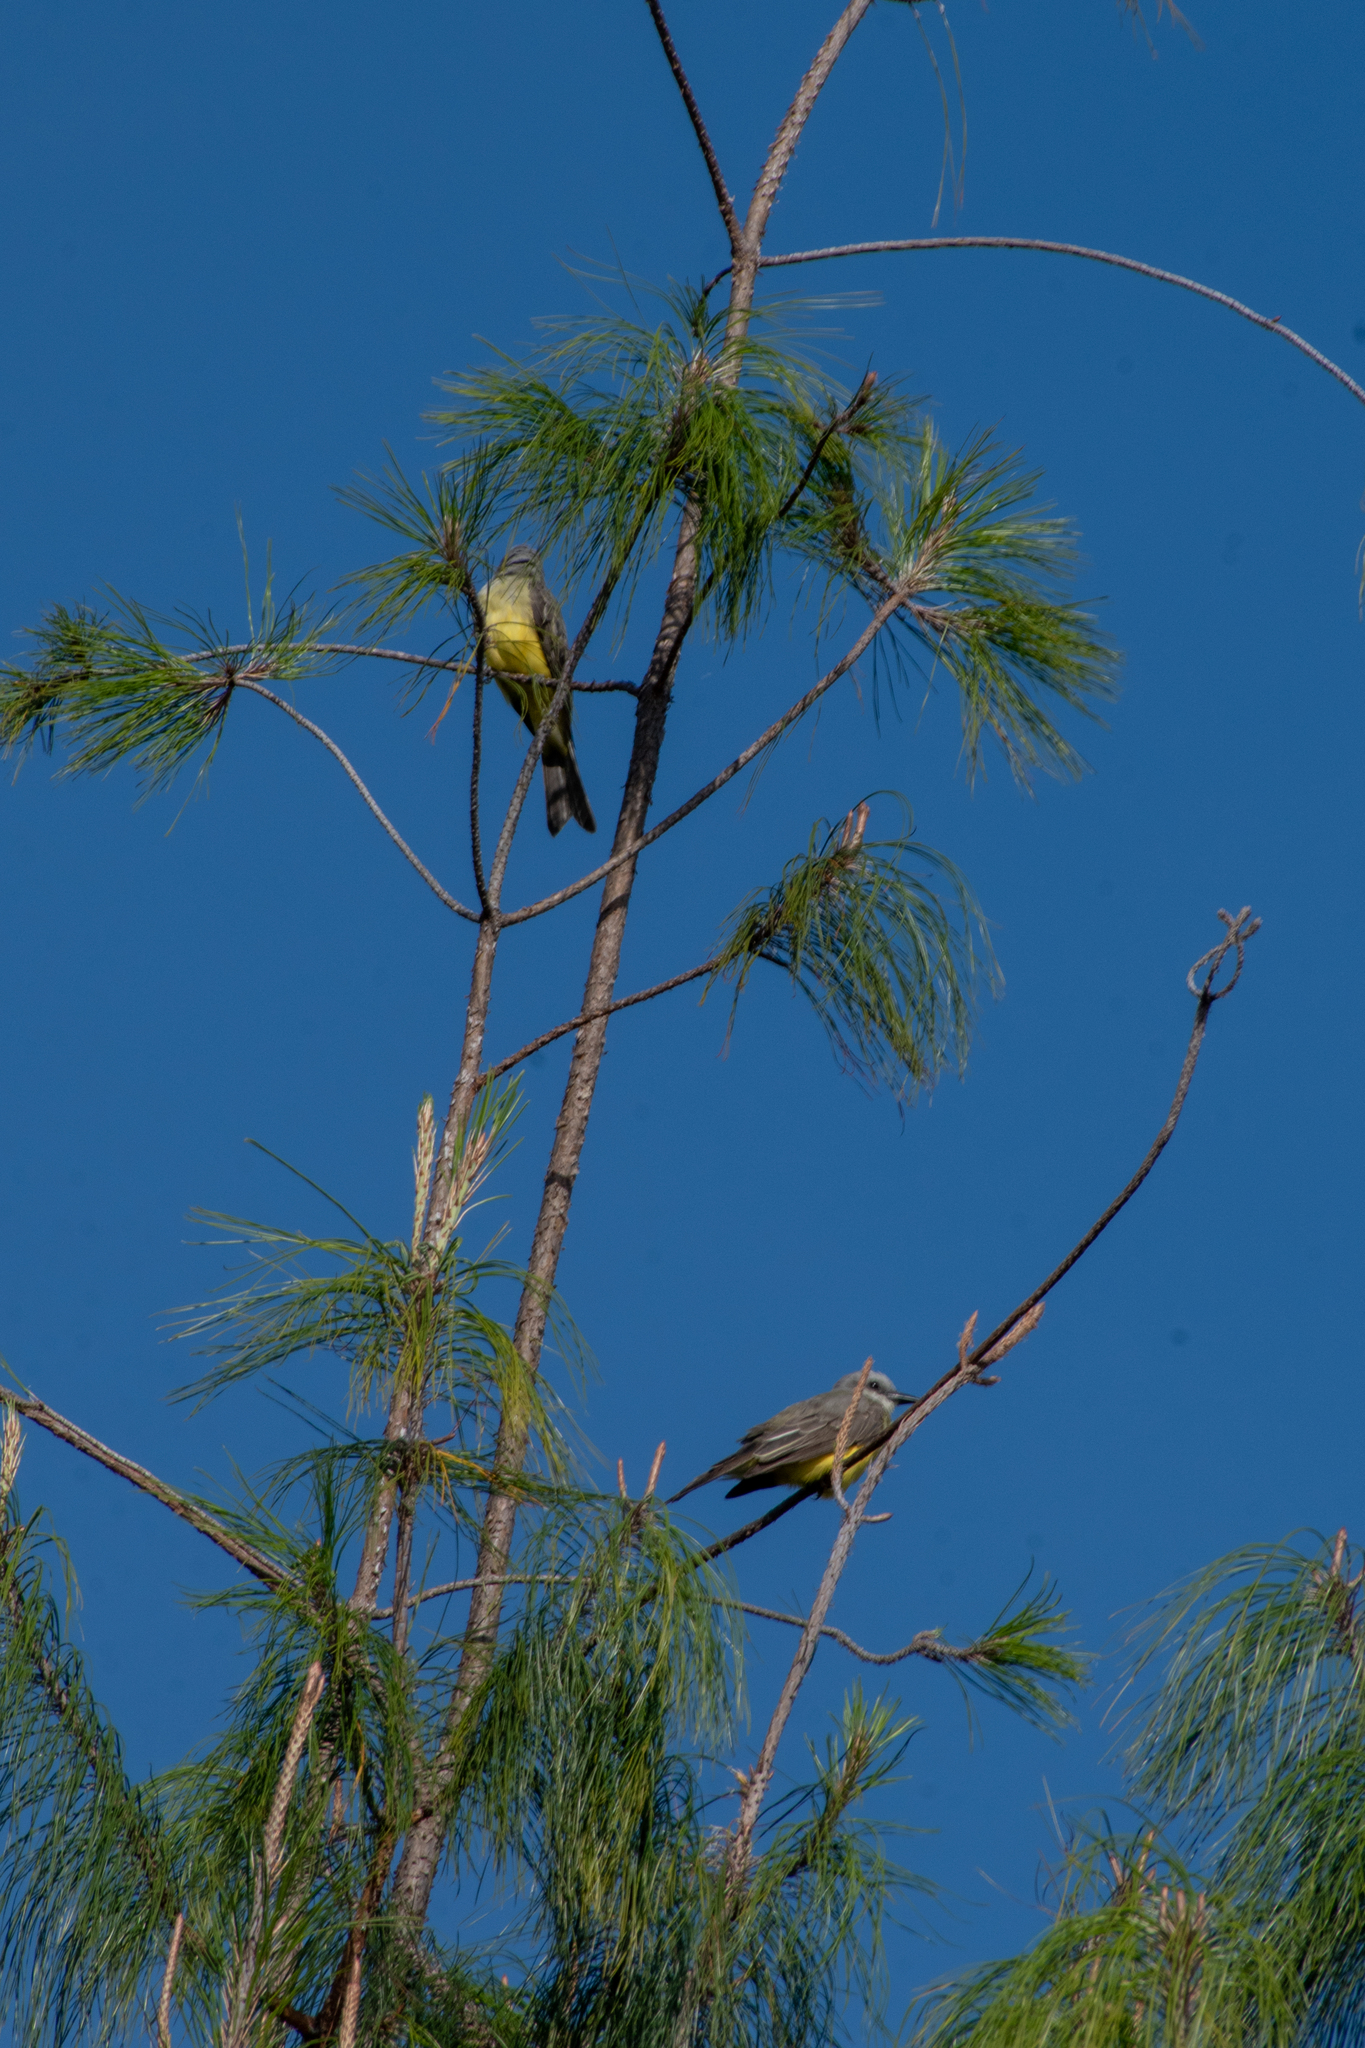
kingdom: Animalia
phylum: Chordata
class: Aves
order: Passeriformes
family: Tyrannidae
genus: Tyrannus
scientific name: Tyrannus melancholicus
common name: Tropical kingbird
